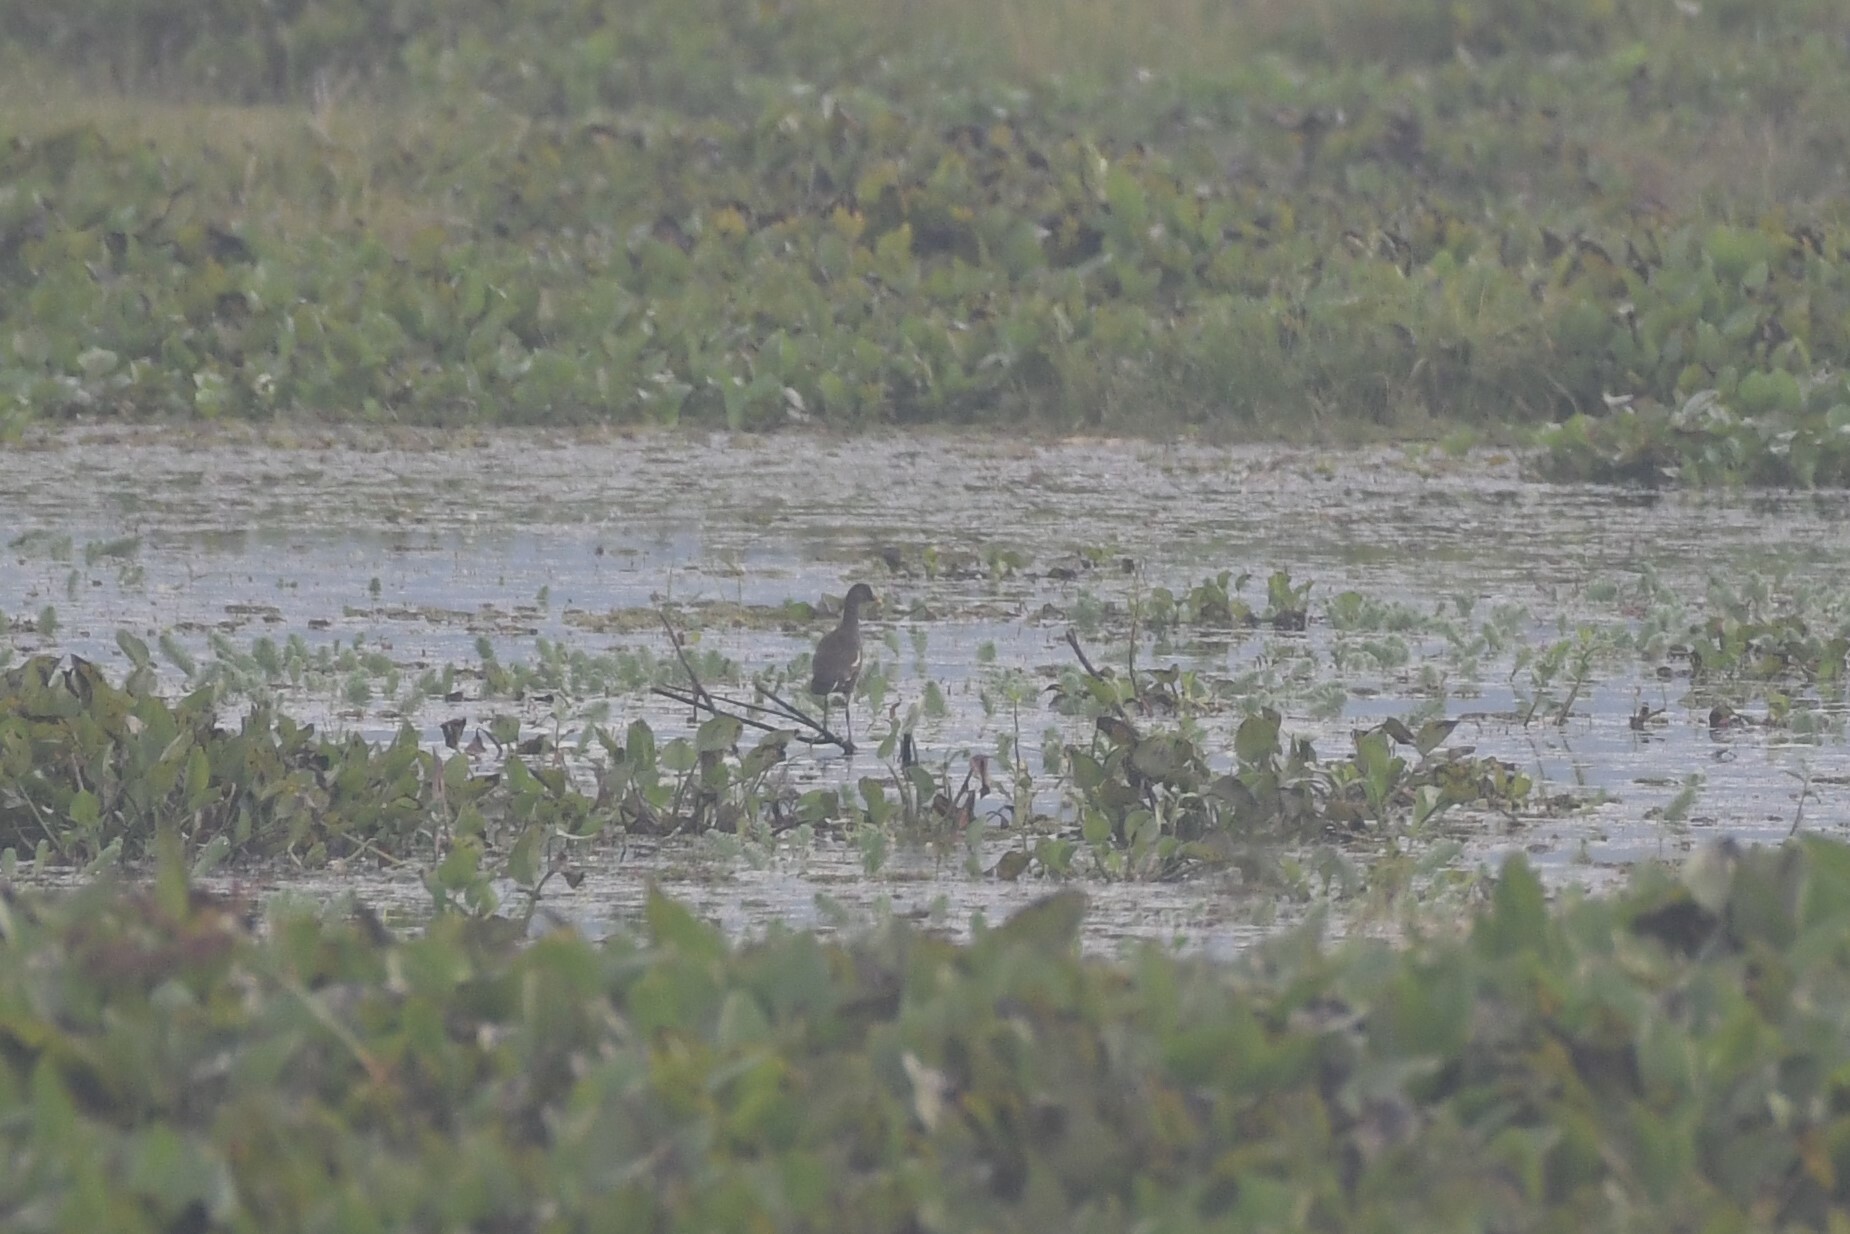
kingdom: Animalia
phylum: Chordata
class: Aves
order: Gruiformes
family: Rallidae
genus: Gallinula
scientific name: Gallinula chloropus
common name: Common moorhen
